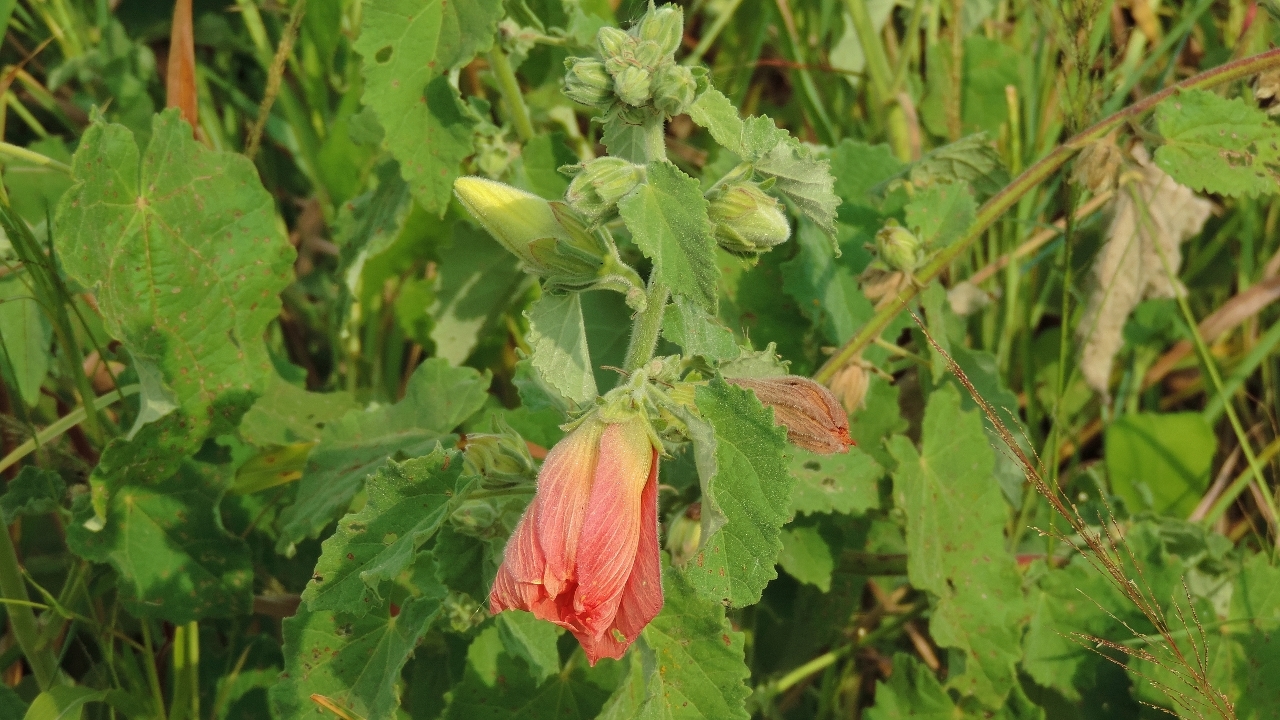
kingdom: Plantae
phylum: Tracheophyta
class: Magnoliopsida
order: Malvales
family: Malvaceae
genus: Hibiscus
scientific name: Hibiscus panduriformis
